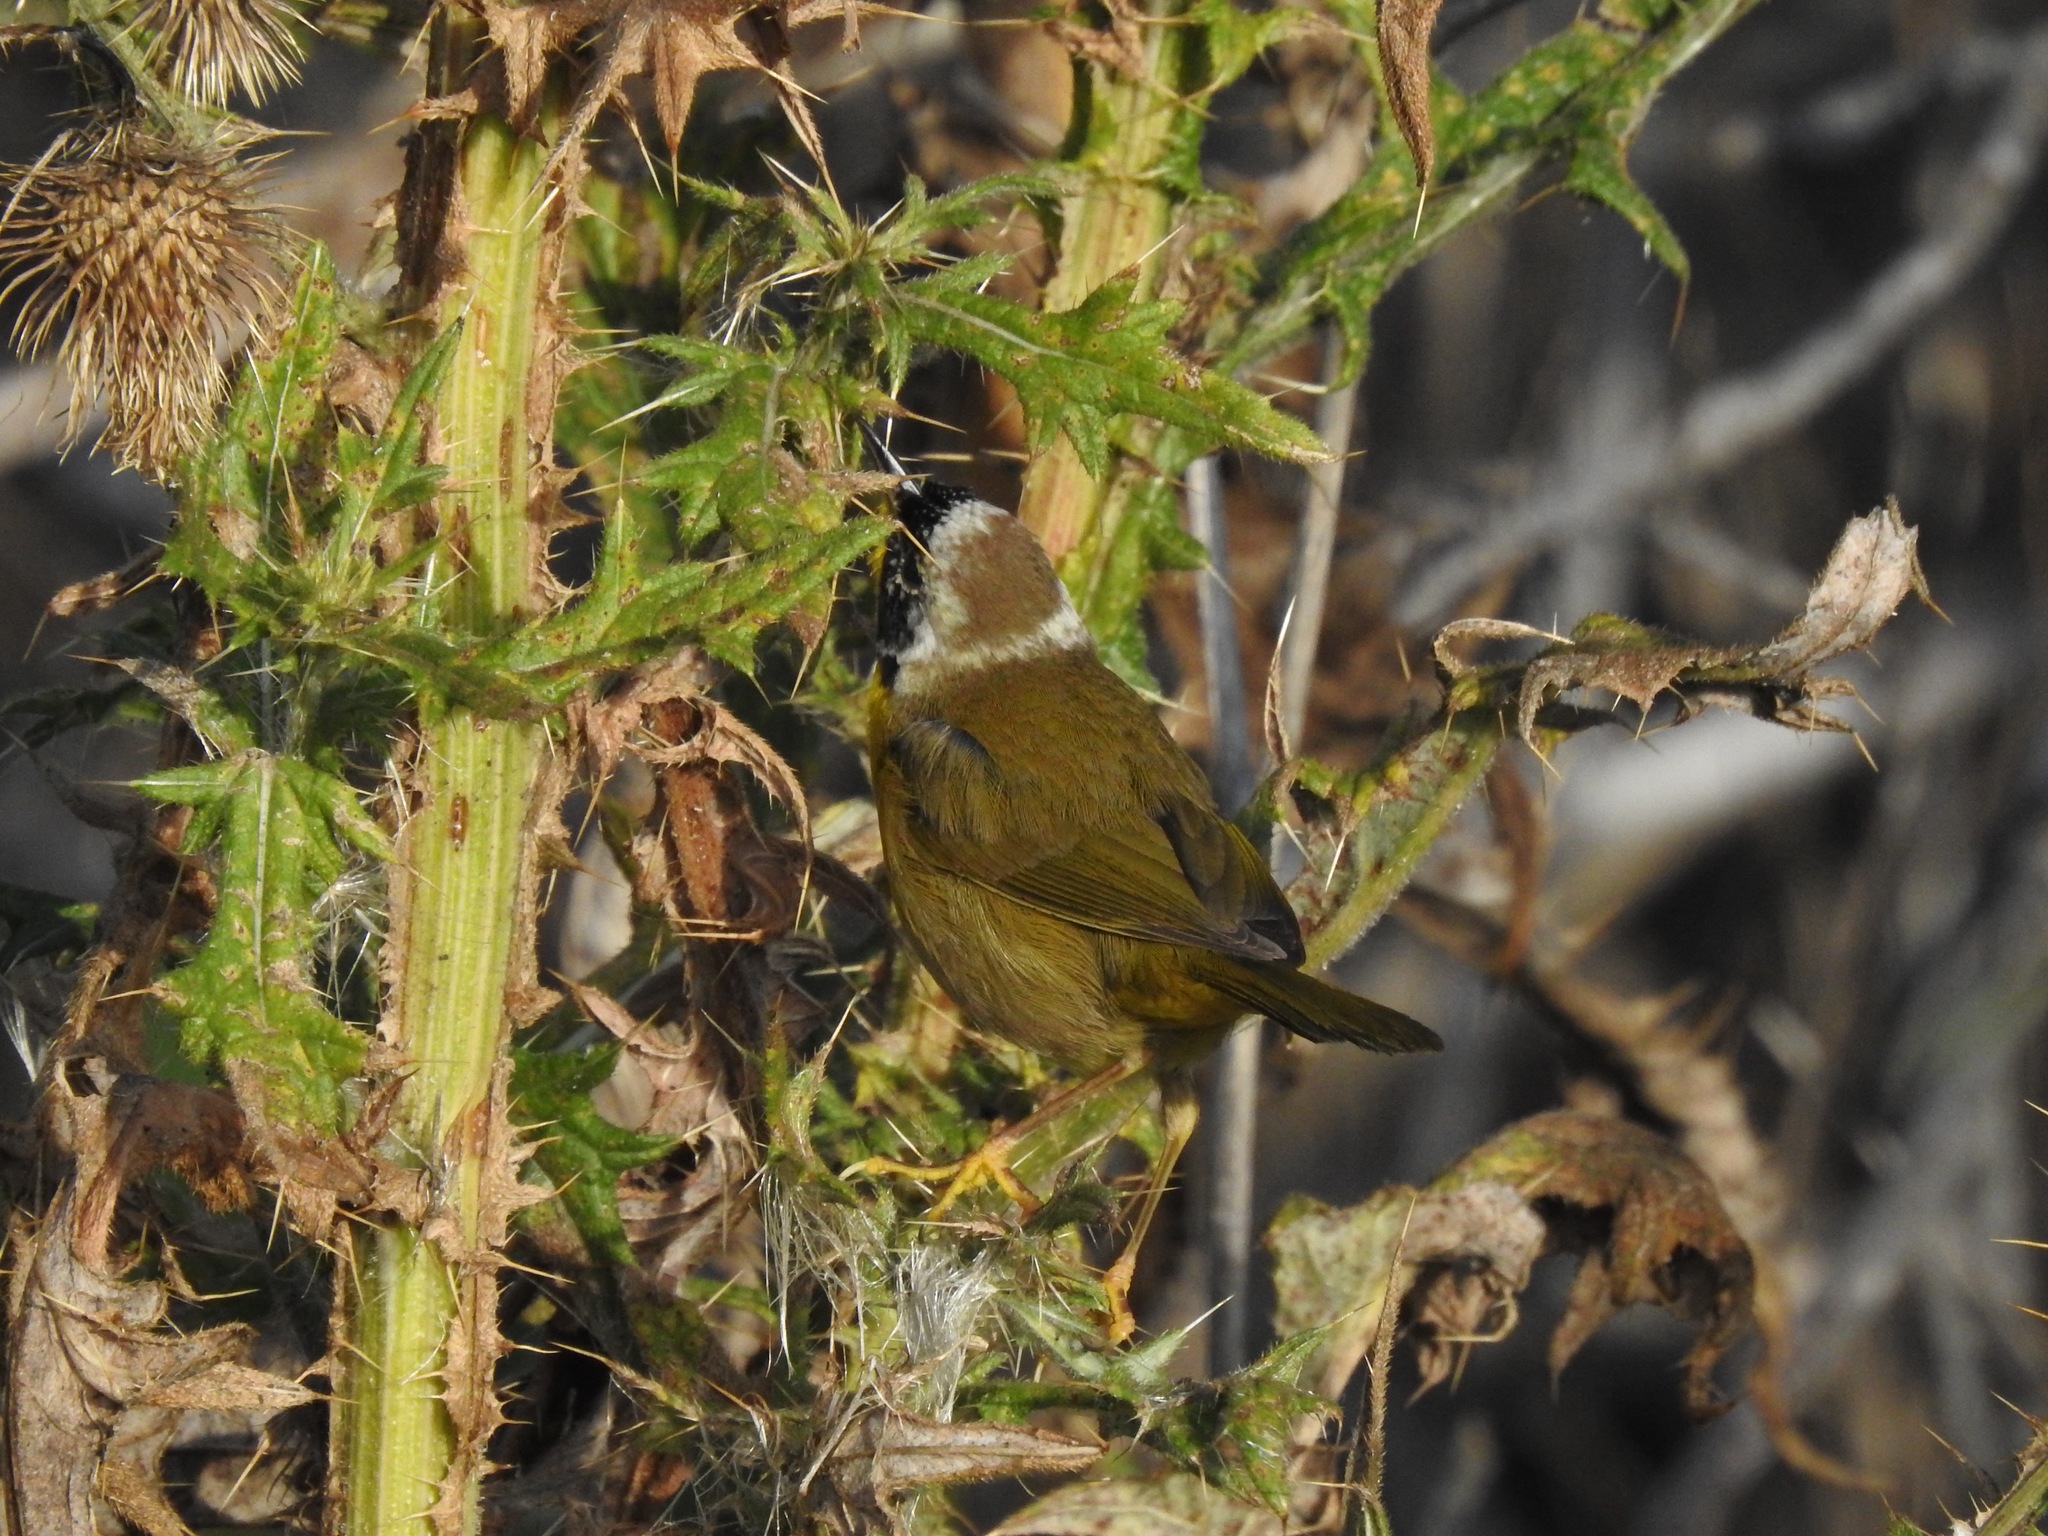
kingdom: Animalia
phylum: Chordata
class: Aves
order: Passeriformes
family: Parulidae
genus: Geothlypis
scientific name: Geothlypis trichas
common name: Common yellowthroat
